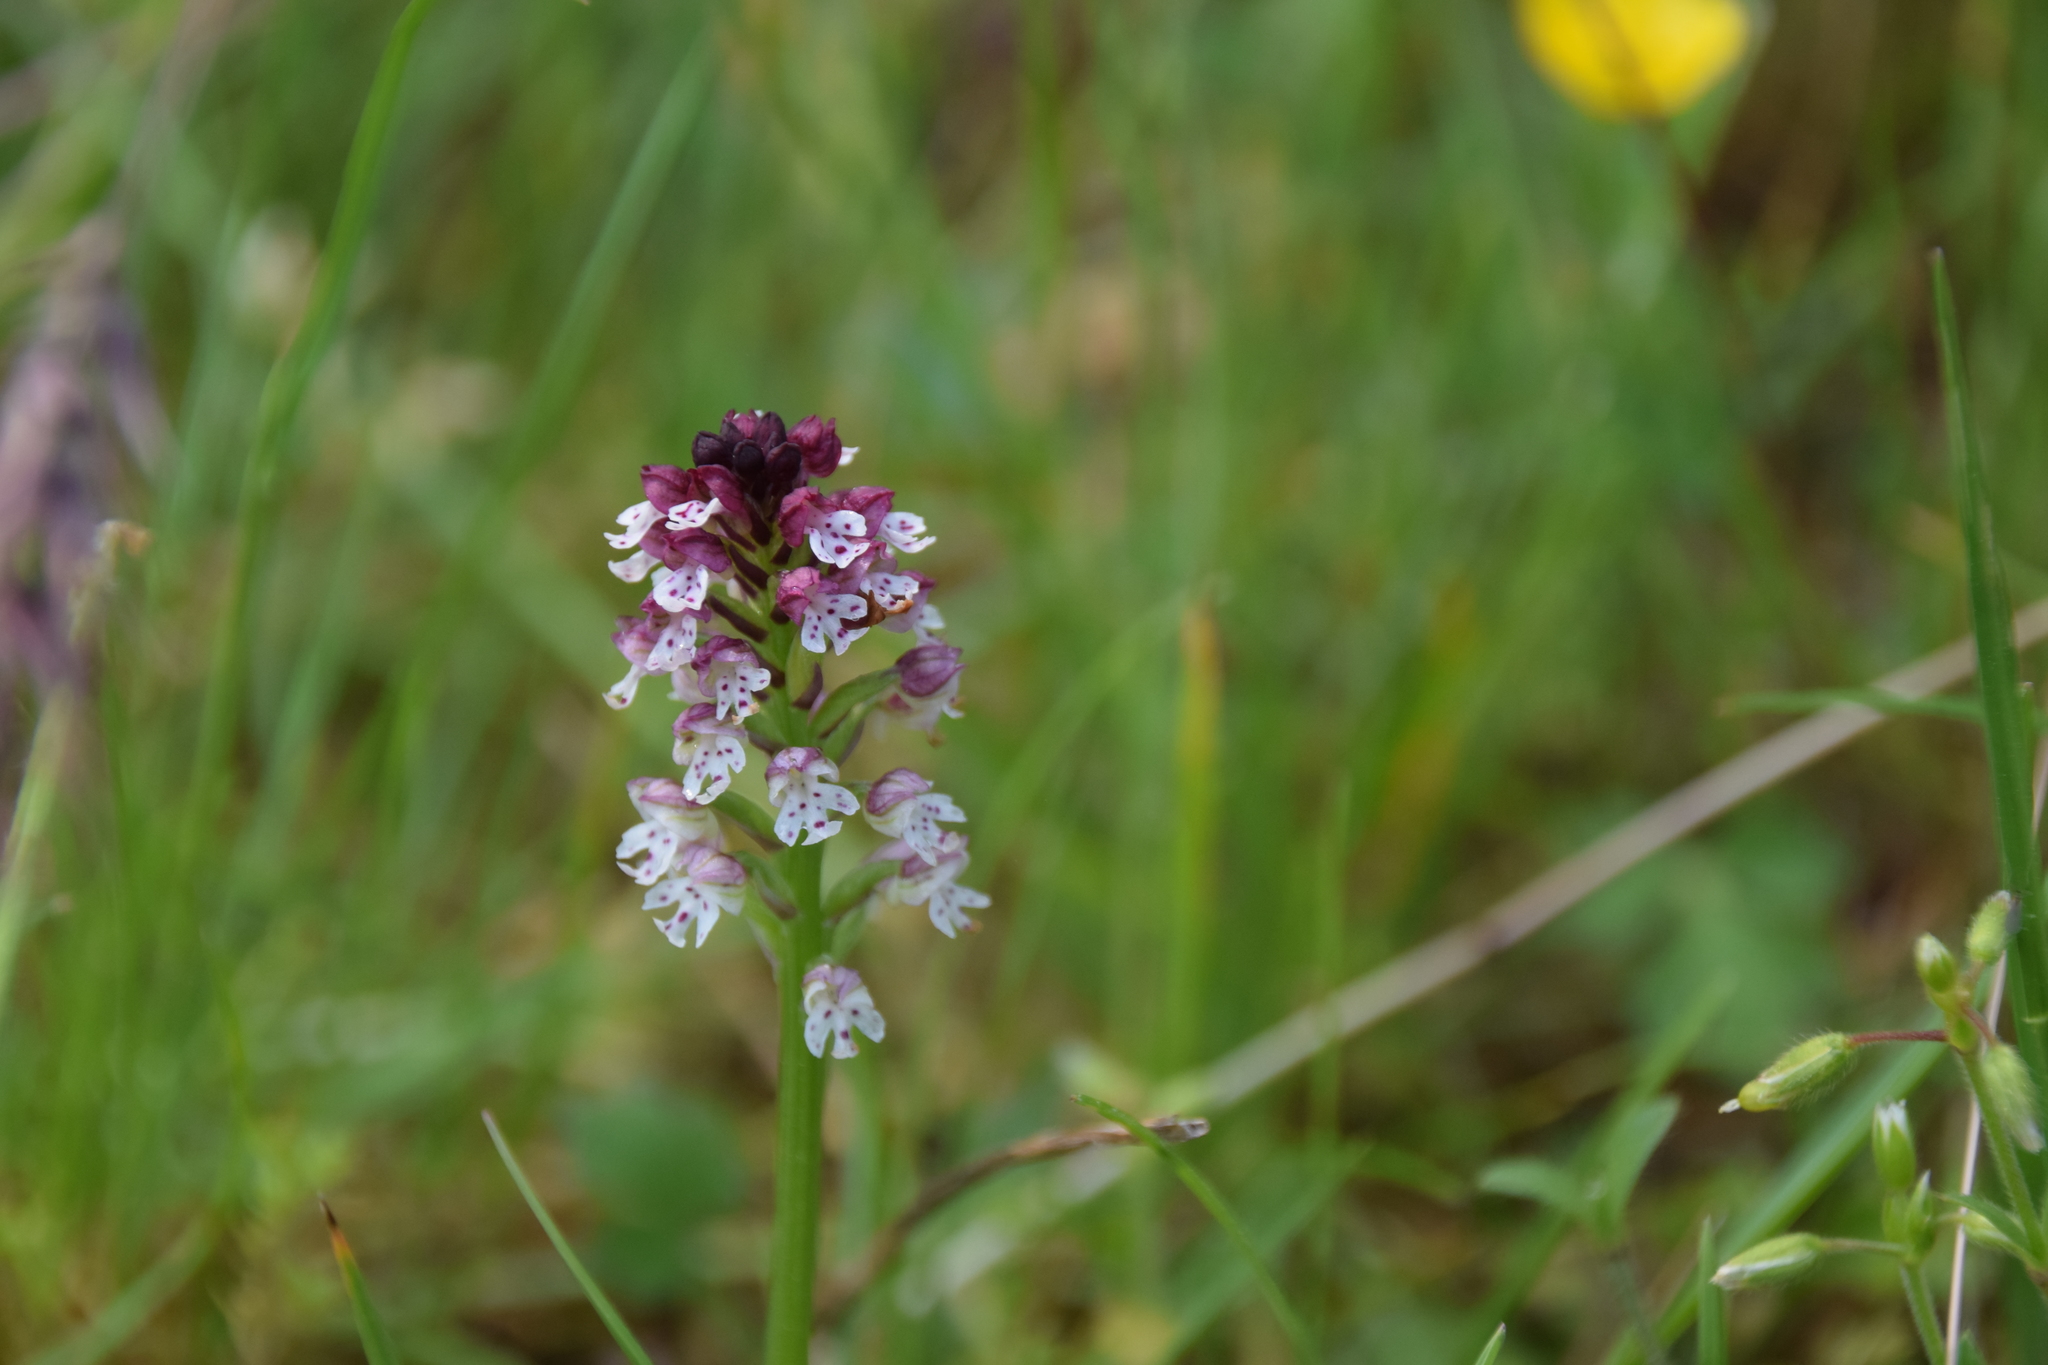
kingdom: Plantae
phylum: Tracheophyta
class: Liliopsida
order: Asparagales
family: Orchidaceae
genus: Neotinea
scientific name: Neotinea ustulata
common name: Burnt orchid
